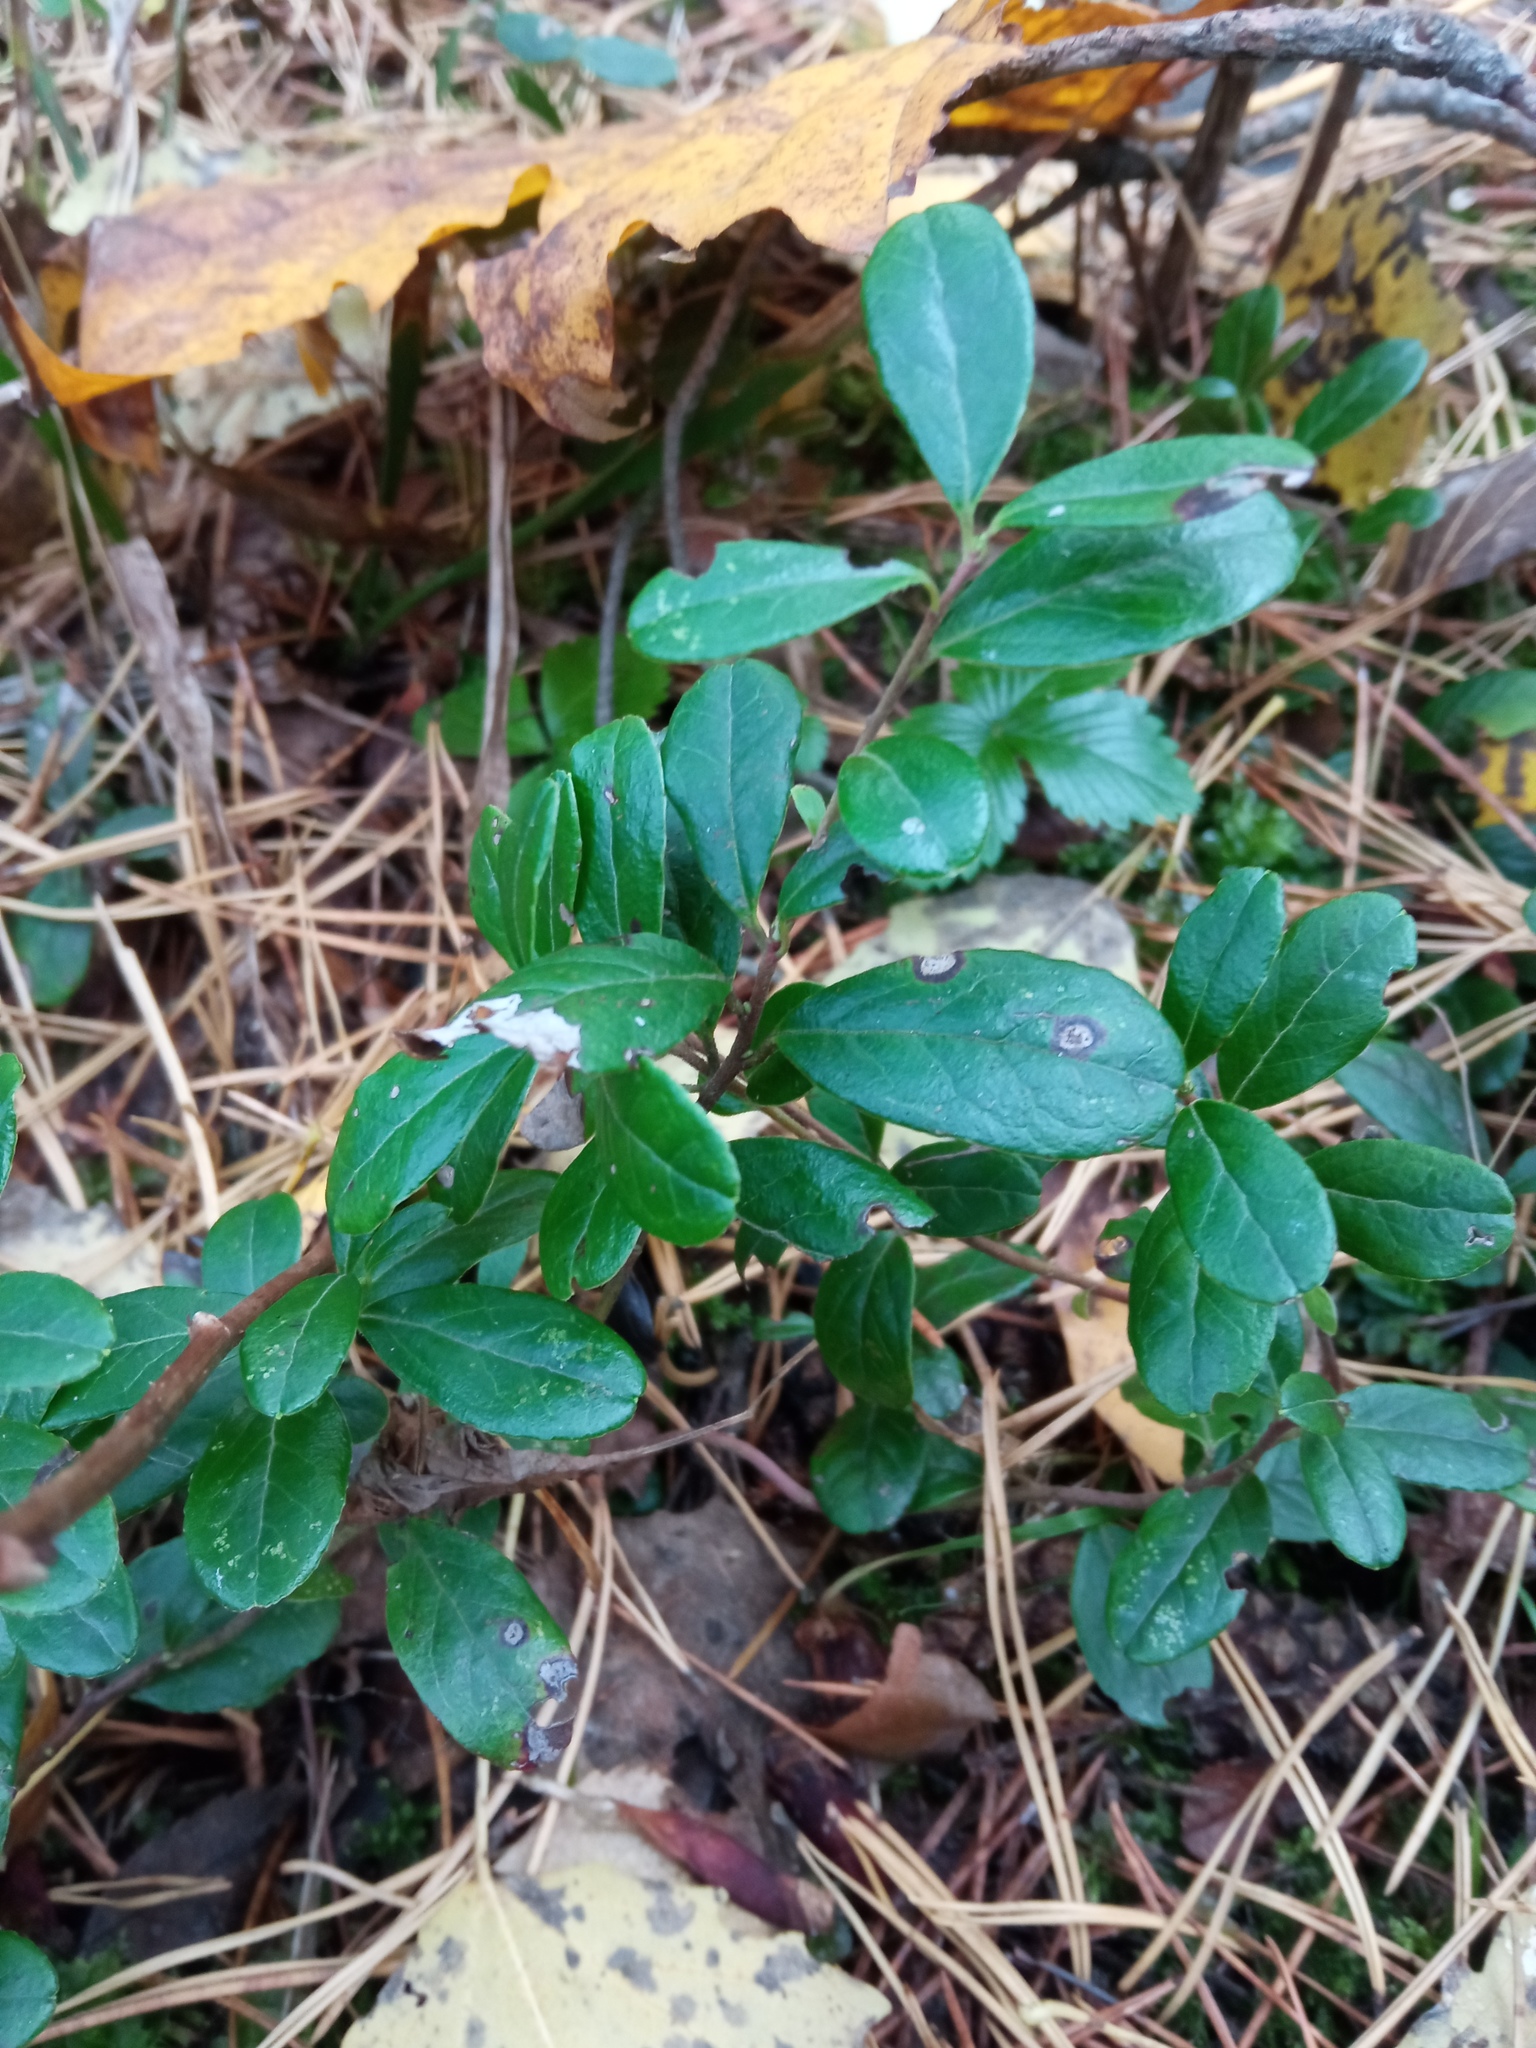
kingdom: Plantae
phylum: Tracheophyta
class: Magnoliopsida
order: Ericales
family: Ericaceae
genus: Vaccinium
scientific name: Vaccinium vitis-idaea
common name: Cowberry
